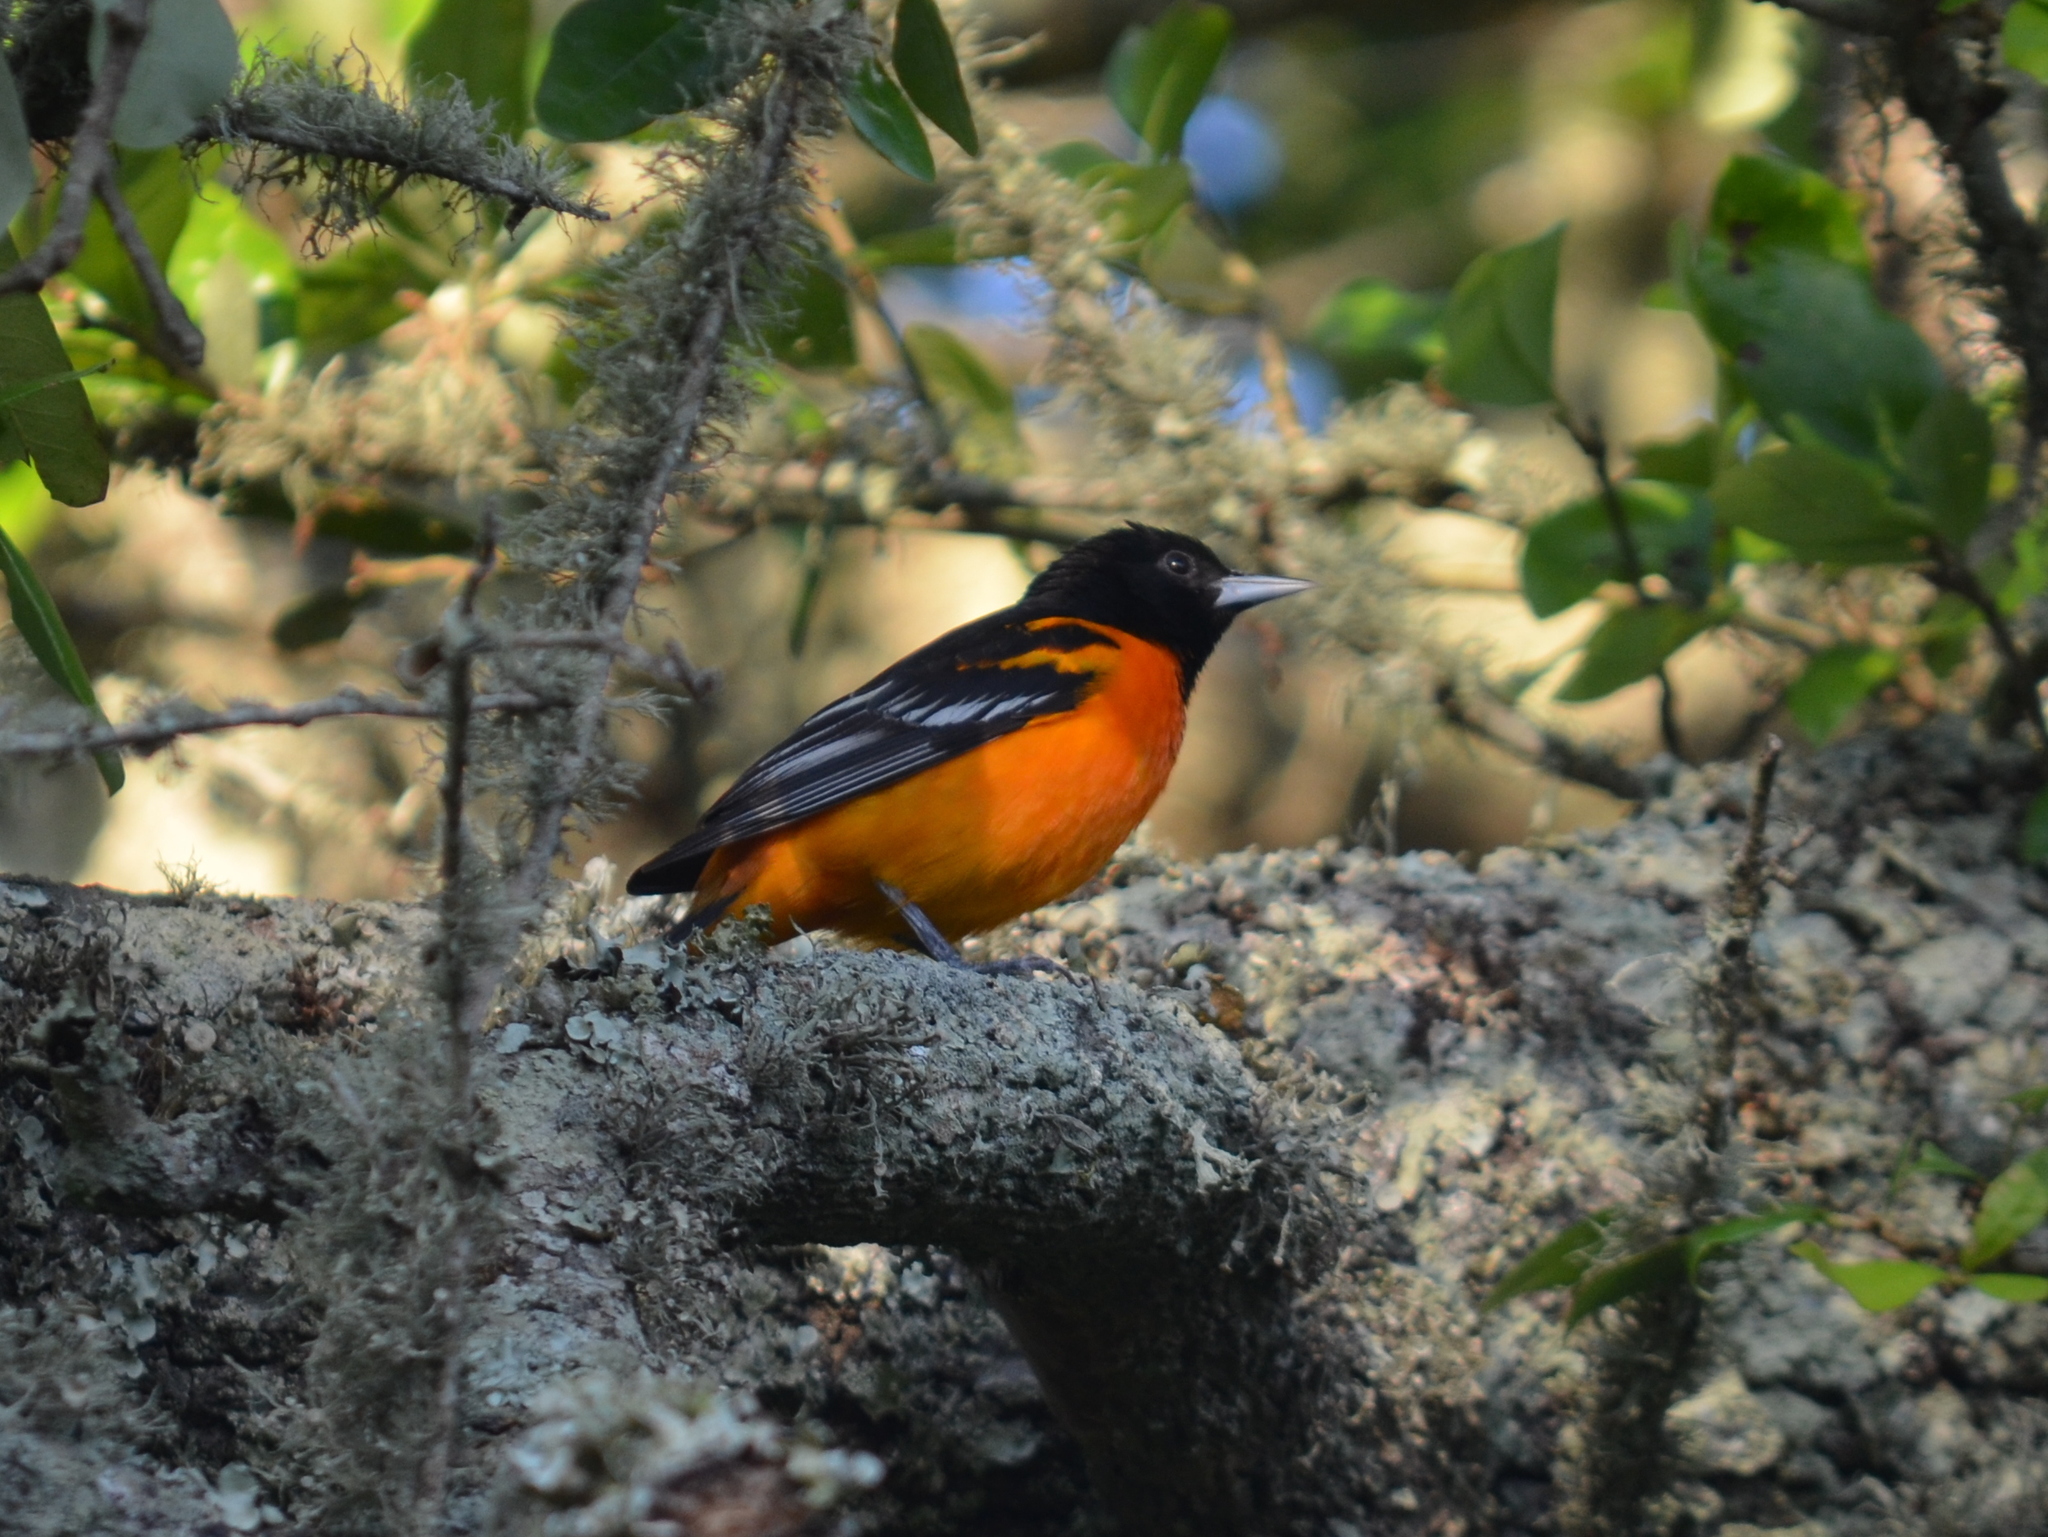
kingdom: Animalia
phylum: Chordata
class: Aves
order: Passeriformes
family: Icteridae
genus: Icterus
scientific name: Icterus galbula
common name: Baltimore oriole
